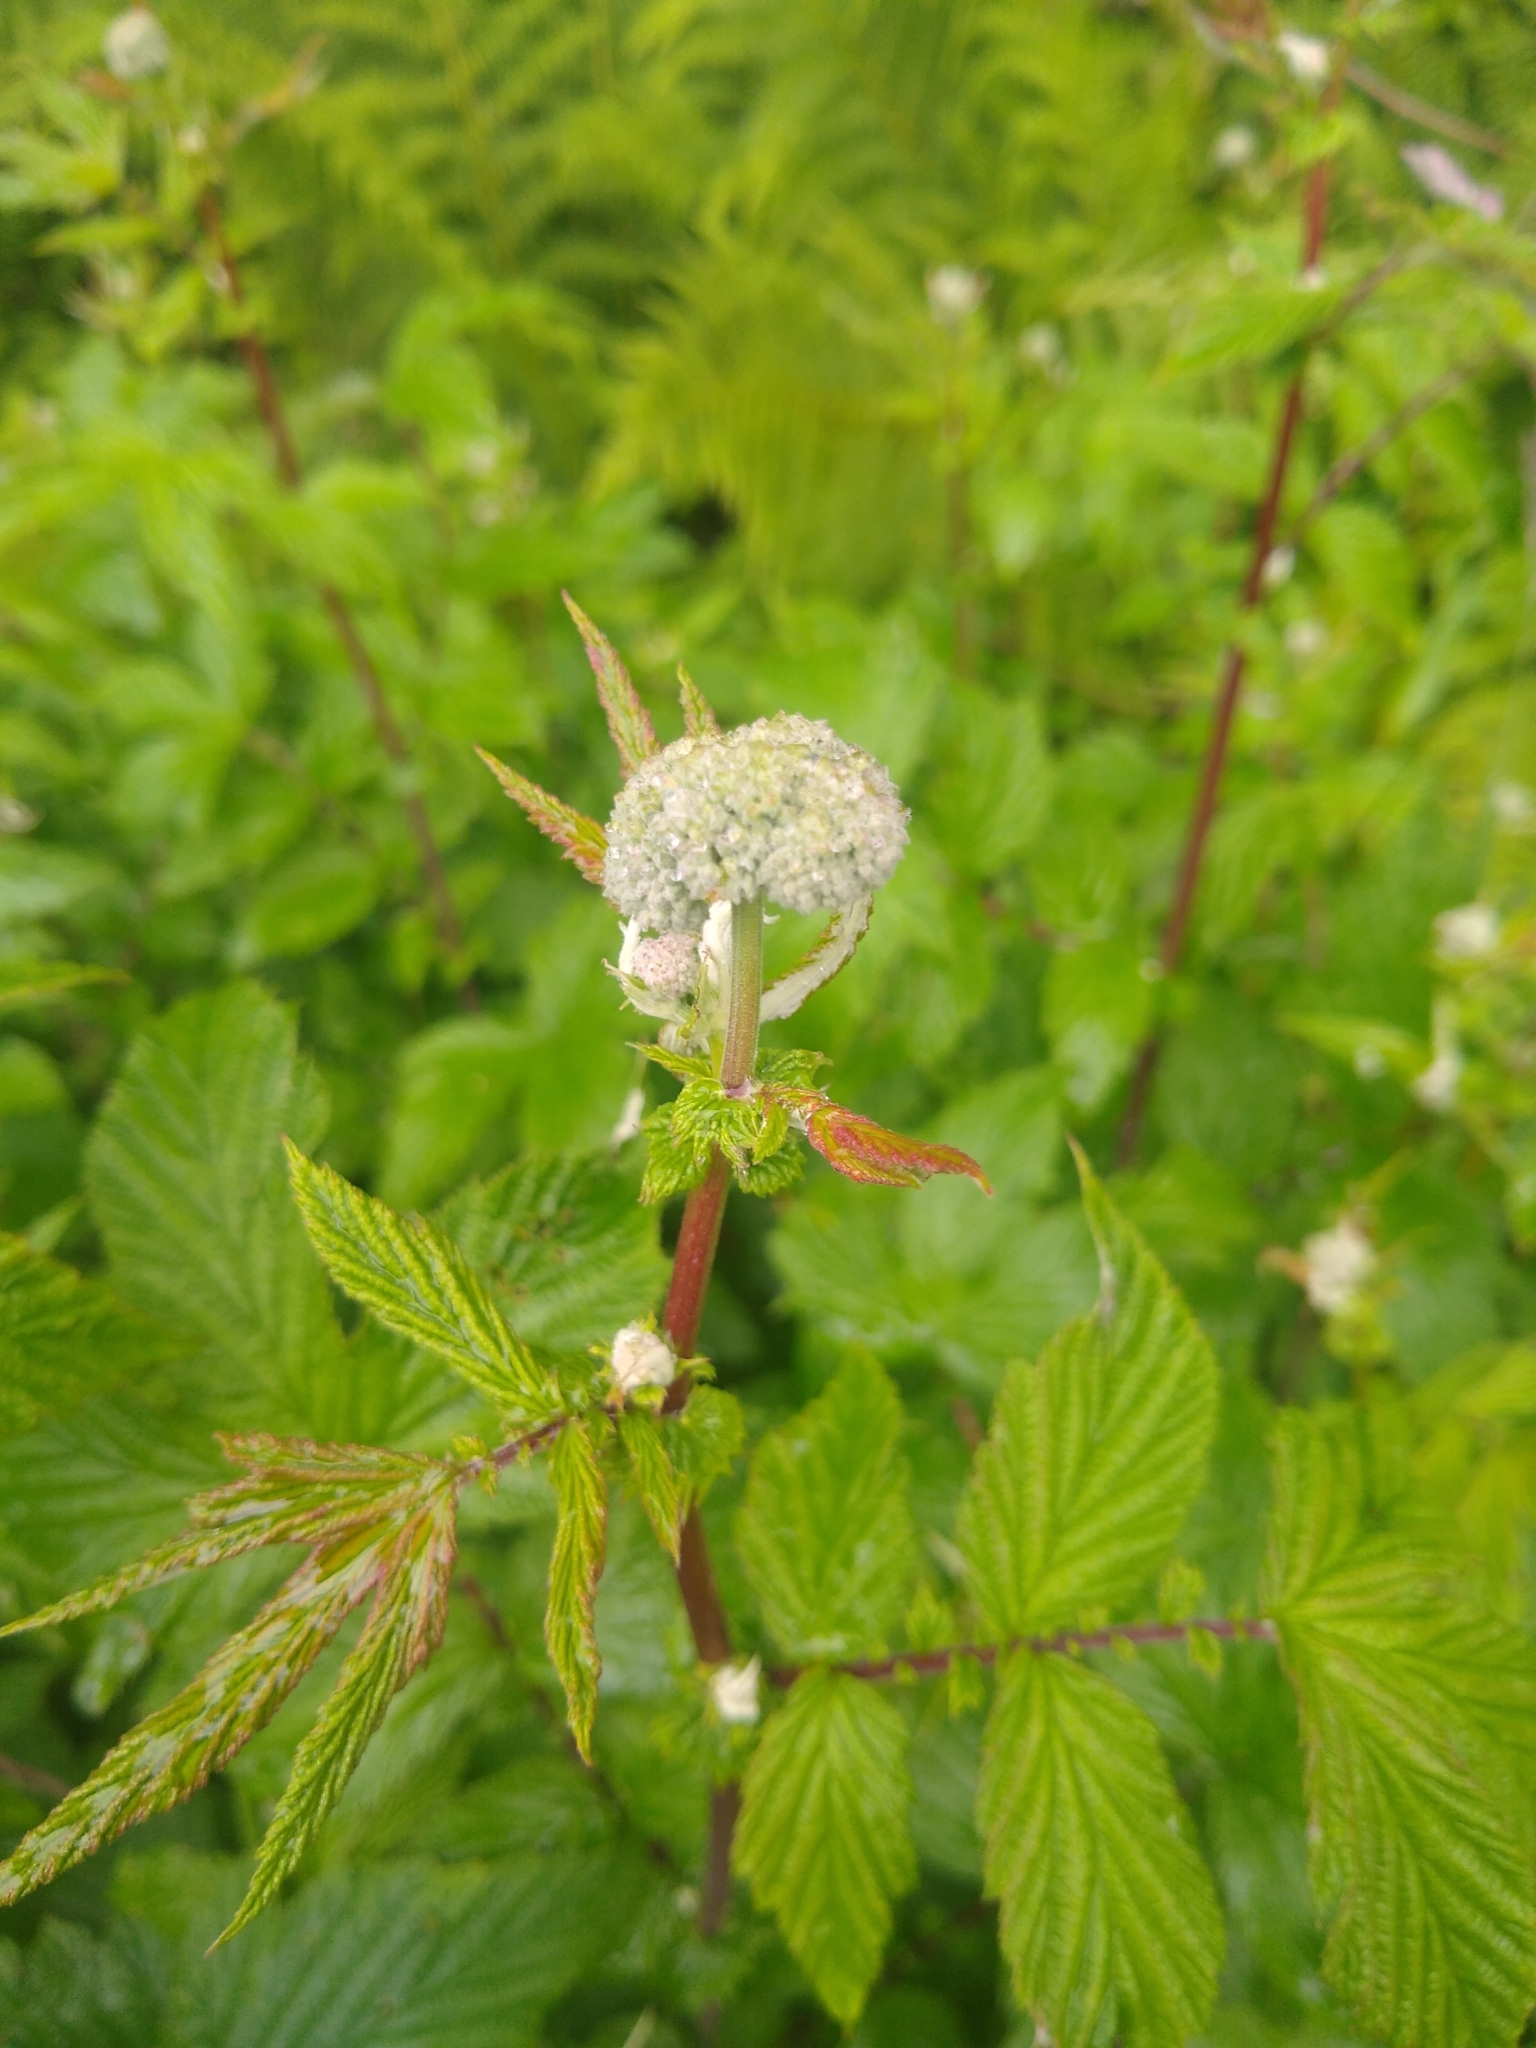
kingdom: Plantae
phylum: Tracheophyta
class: Magnoliopsida
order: Rosales
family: Rosaceae
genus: Filipendula
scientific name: Filipendula ulmaria
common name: Meadowsweet
